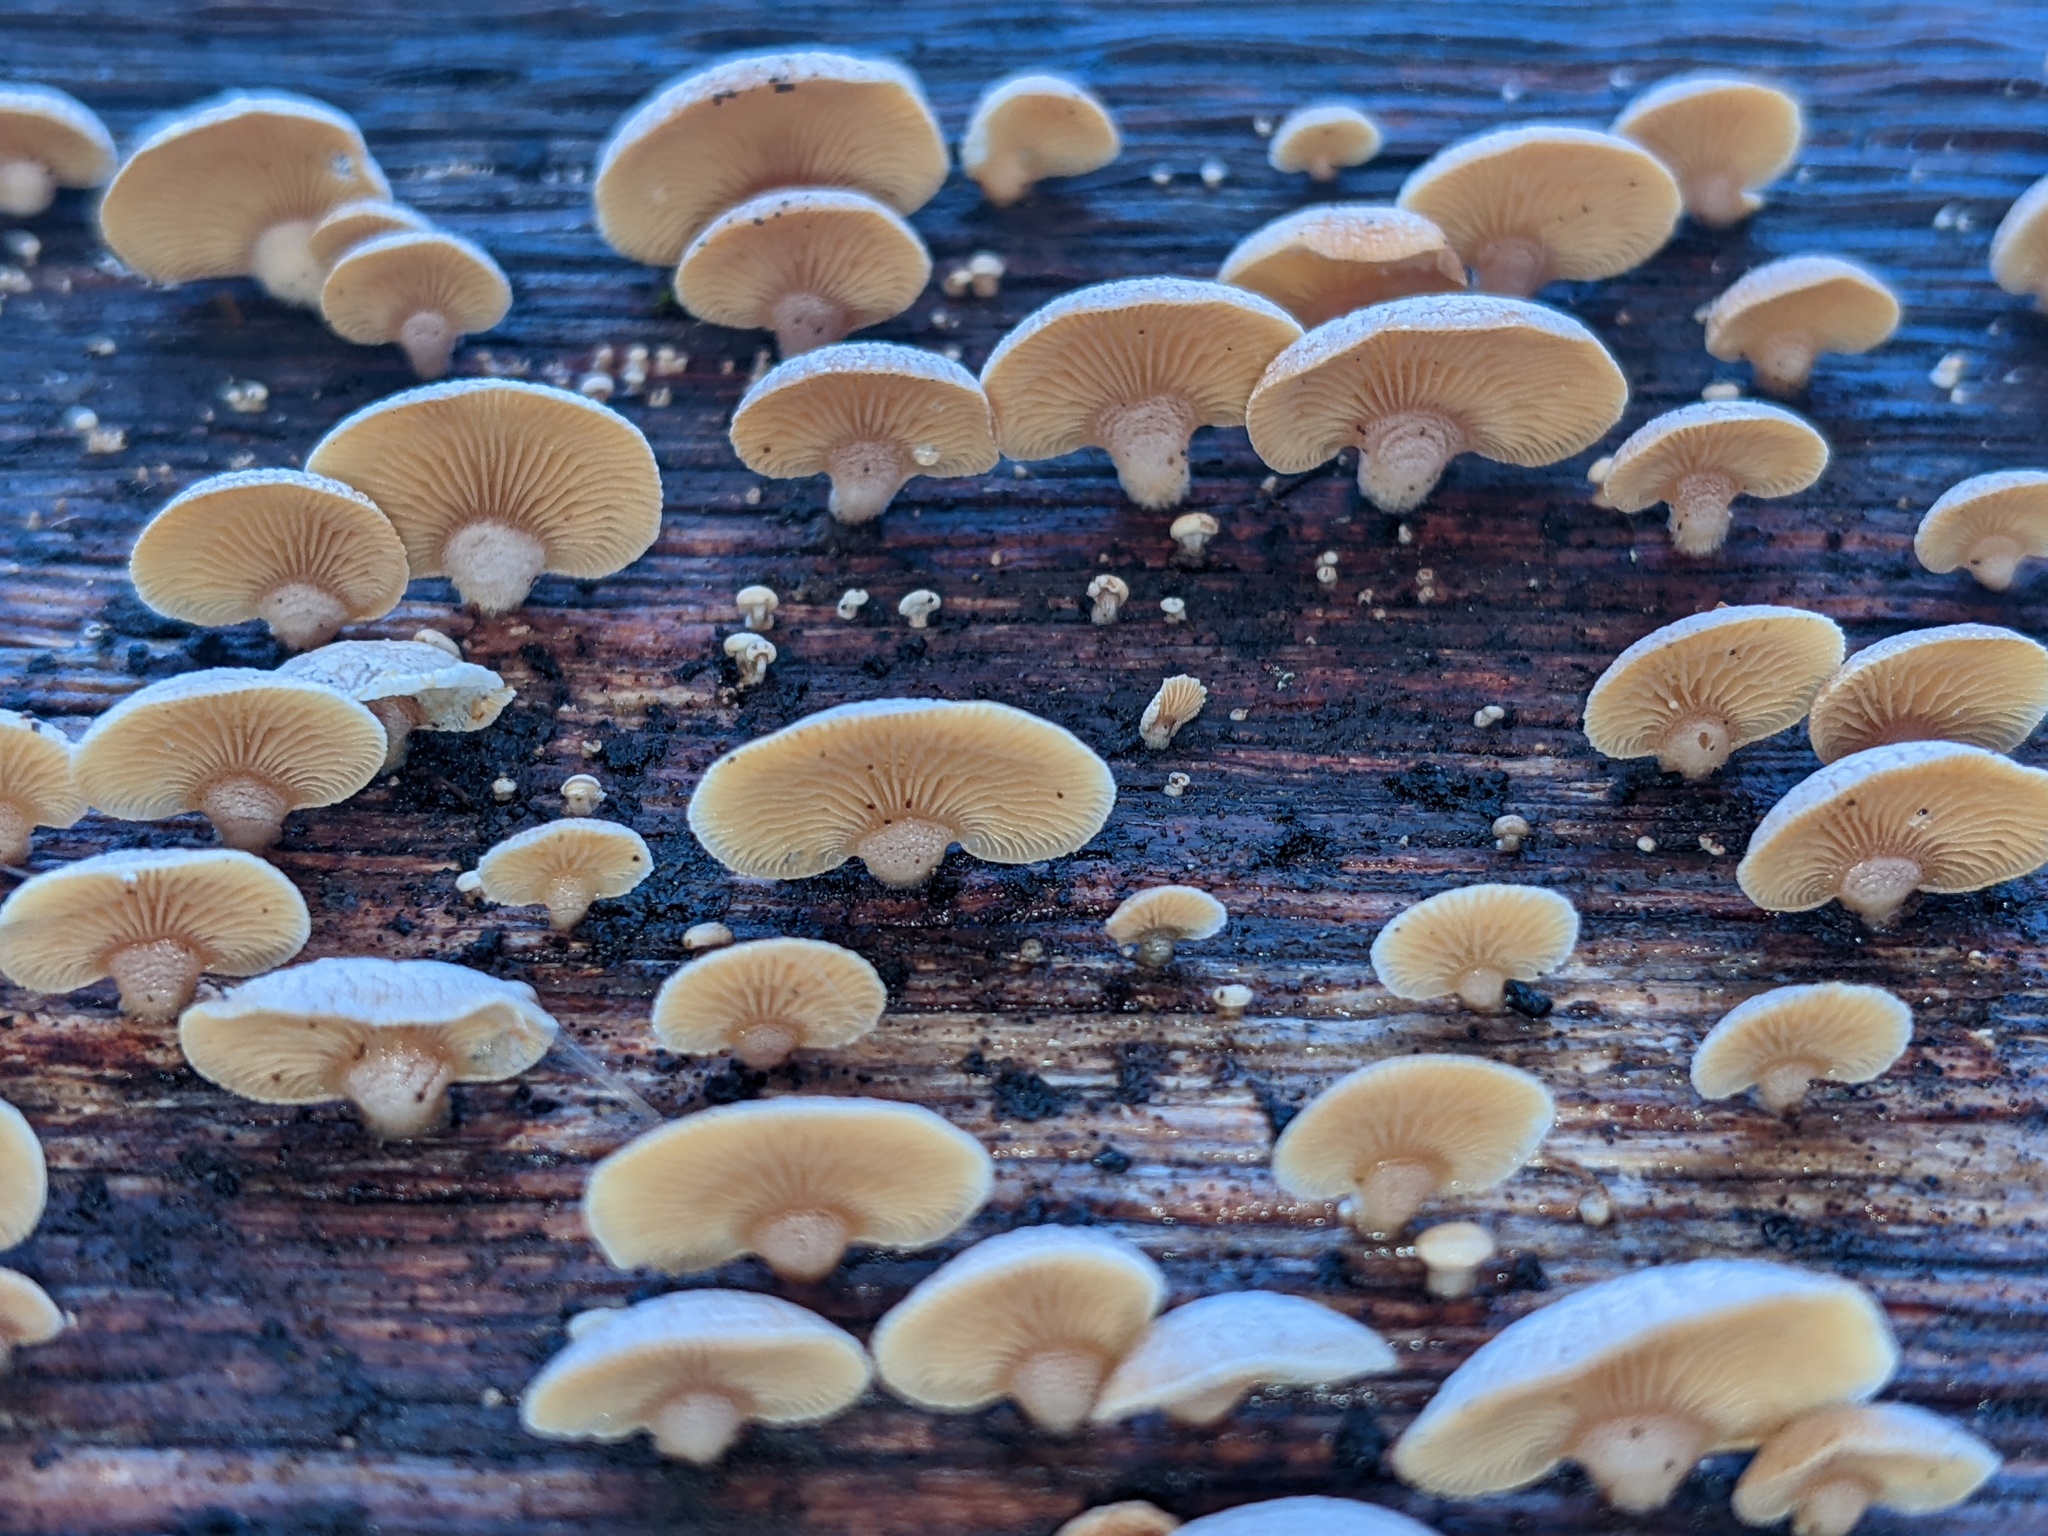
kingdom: Fungi
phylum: Basidiomycota
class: Agaricomycetes
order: Agaricales
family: Mycenaceae
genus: Panellus
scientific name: Panellus stipticus
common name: Bitter oysterling
